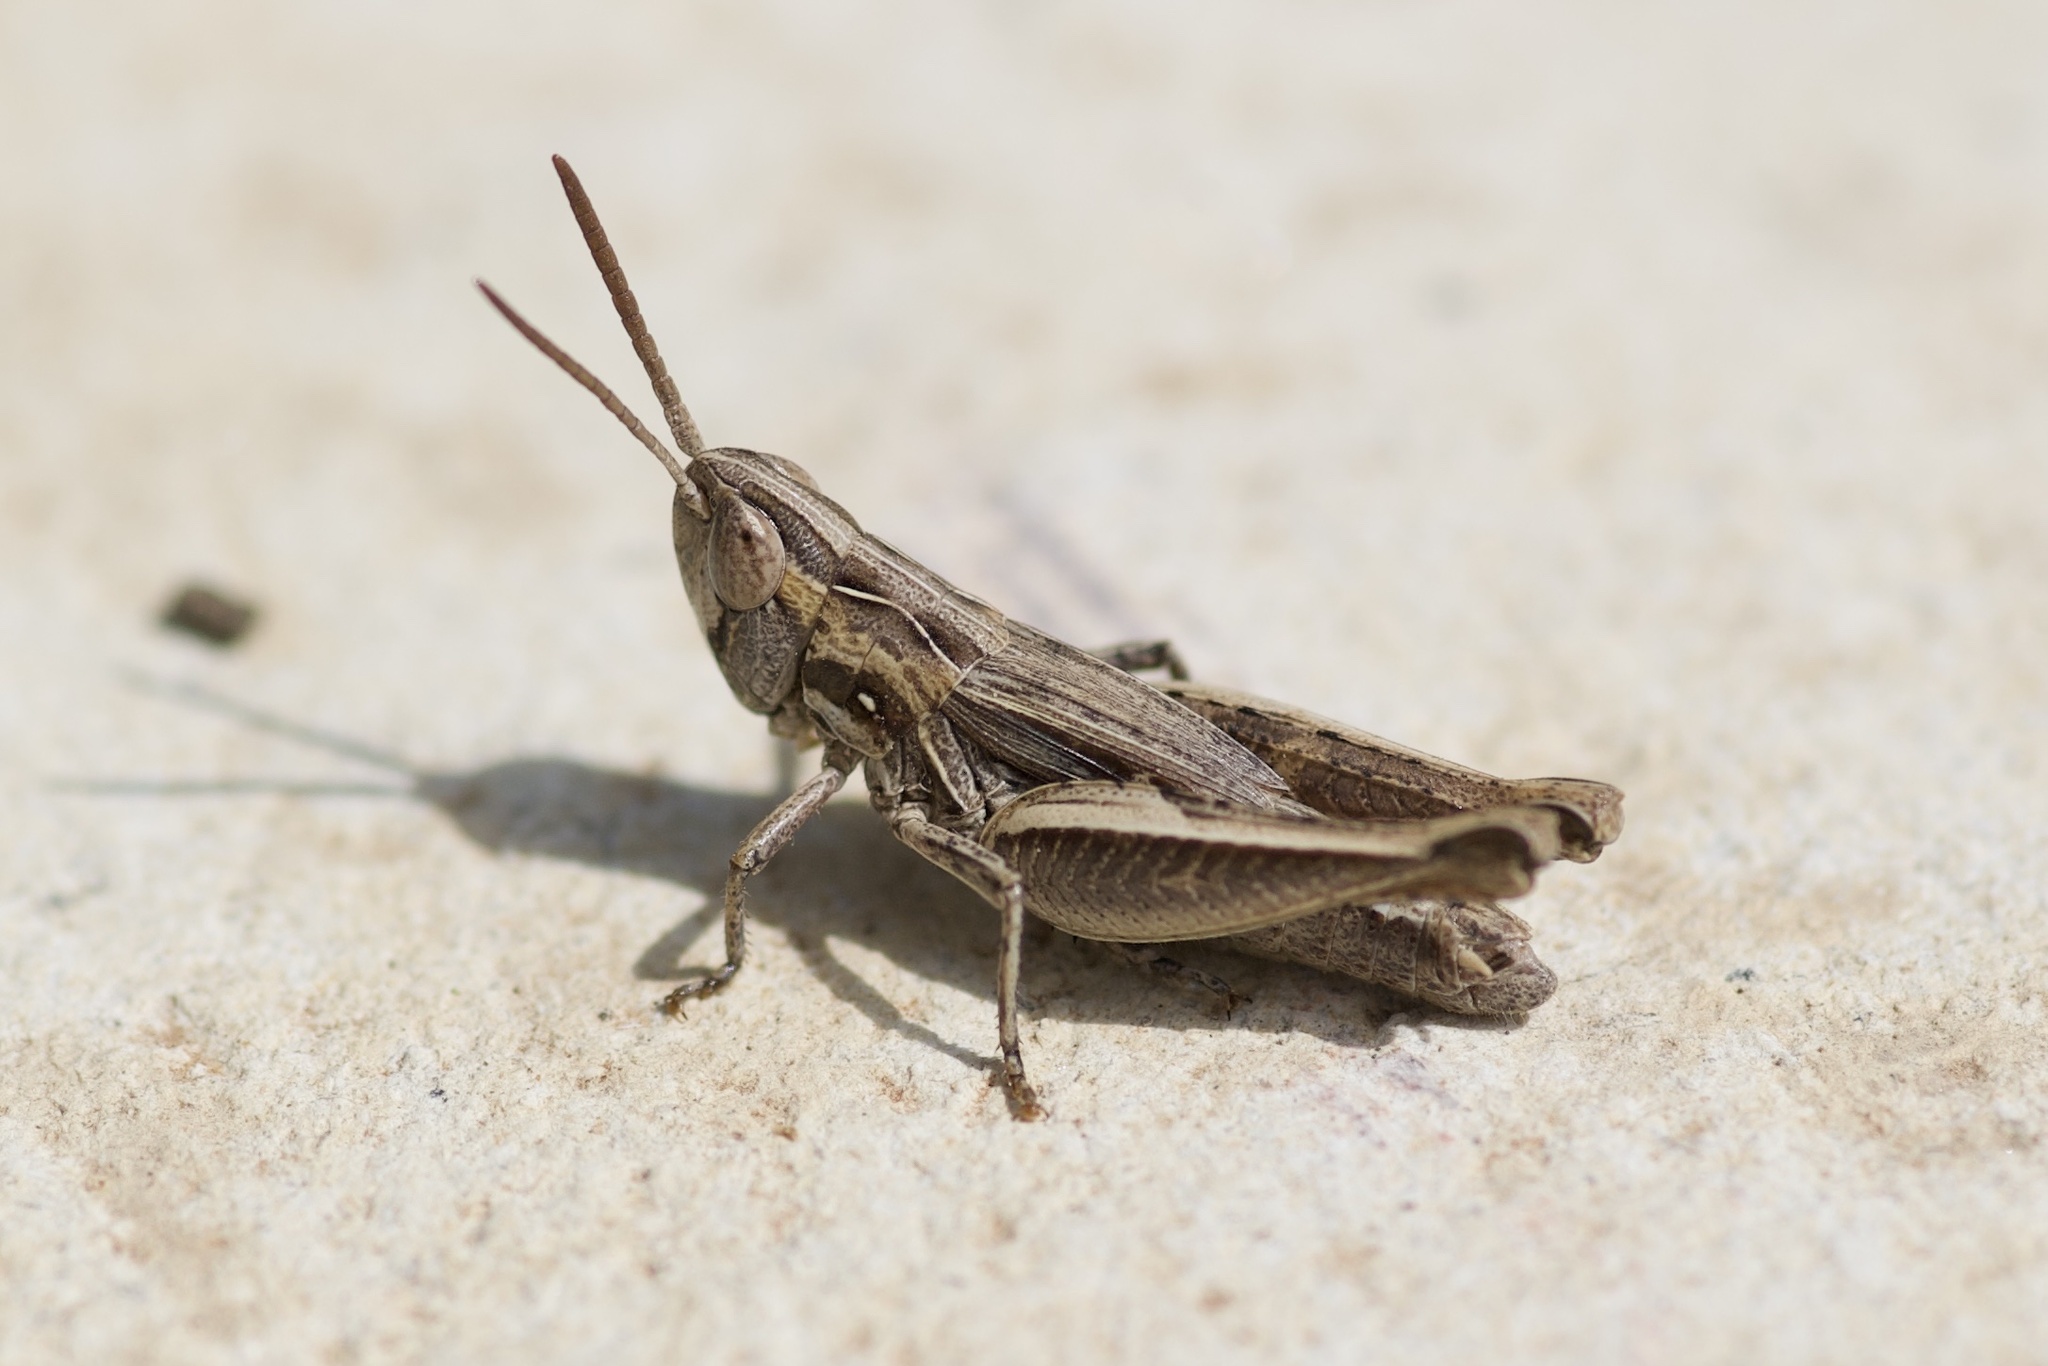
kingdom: Animalia
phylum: Arthropoda
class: Insecta
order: Orthoptera
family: Acrididae
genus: Eritettix
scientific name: Eritettix abortivus
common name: Slant-faced grasshopper
